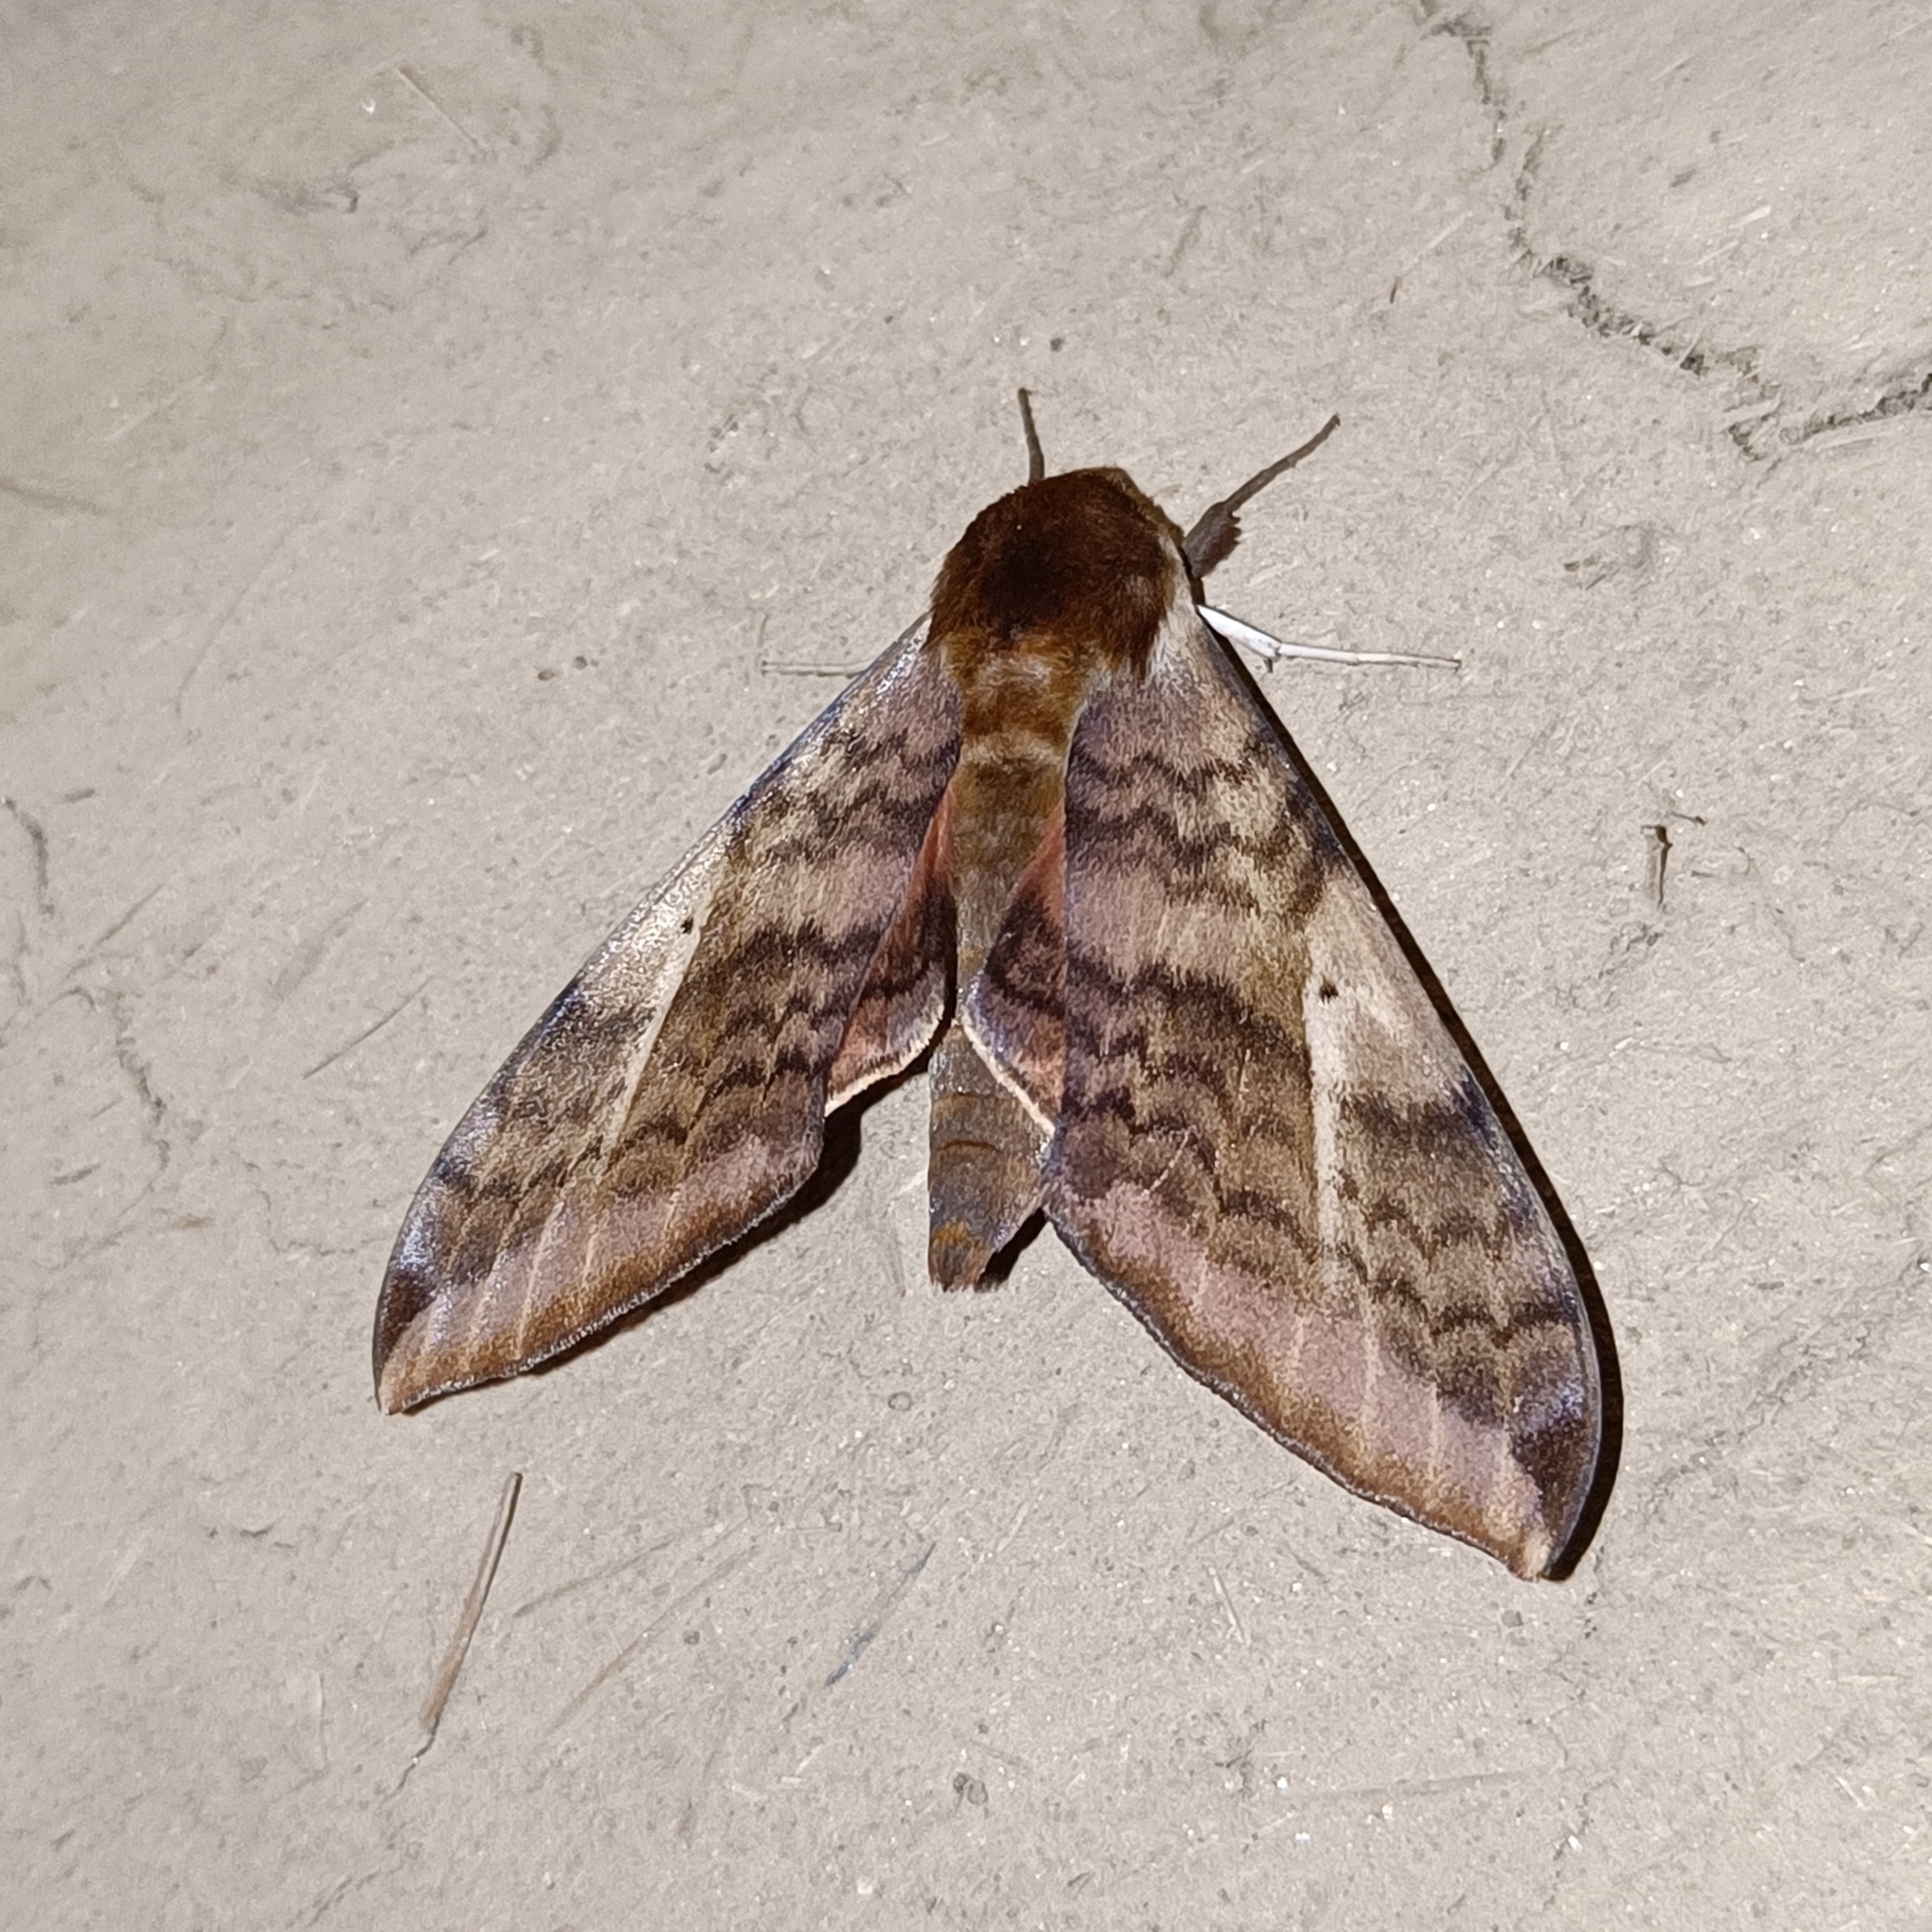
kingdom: Animalia
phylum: Arthropoda
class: Insecta
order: Lepidoptera
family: Sphingidae
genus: Clanidopsis
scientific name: Clanidopsis exusta
